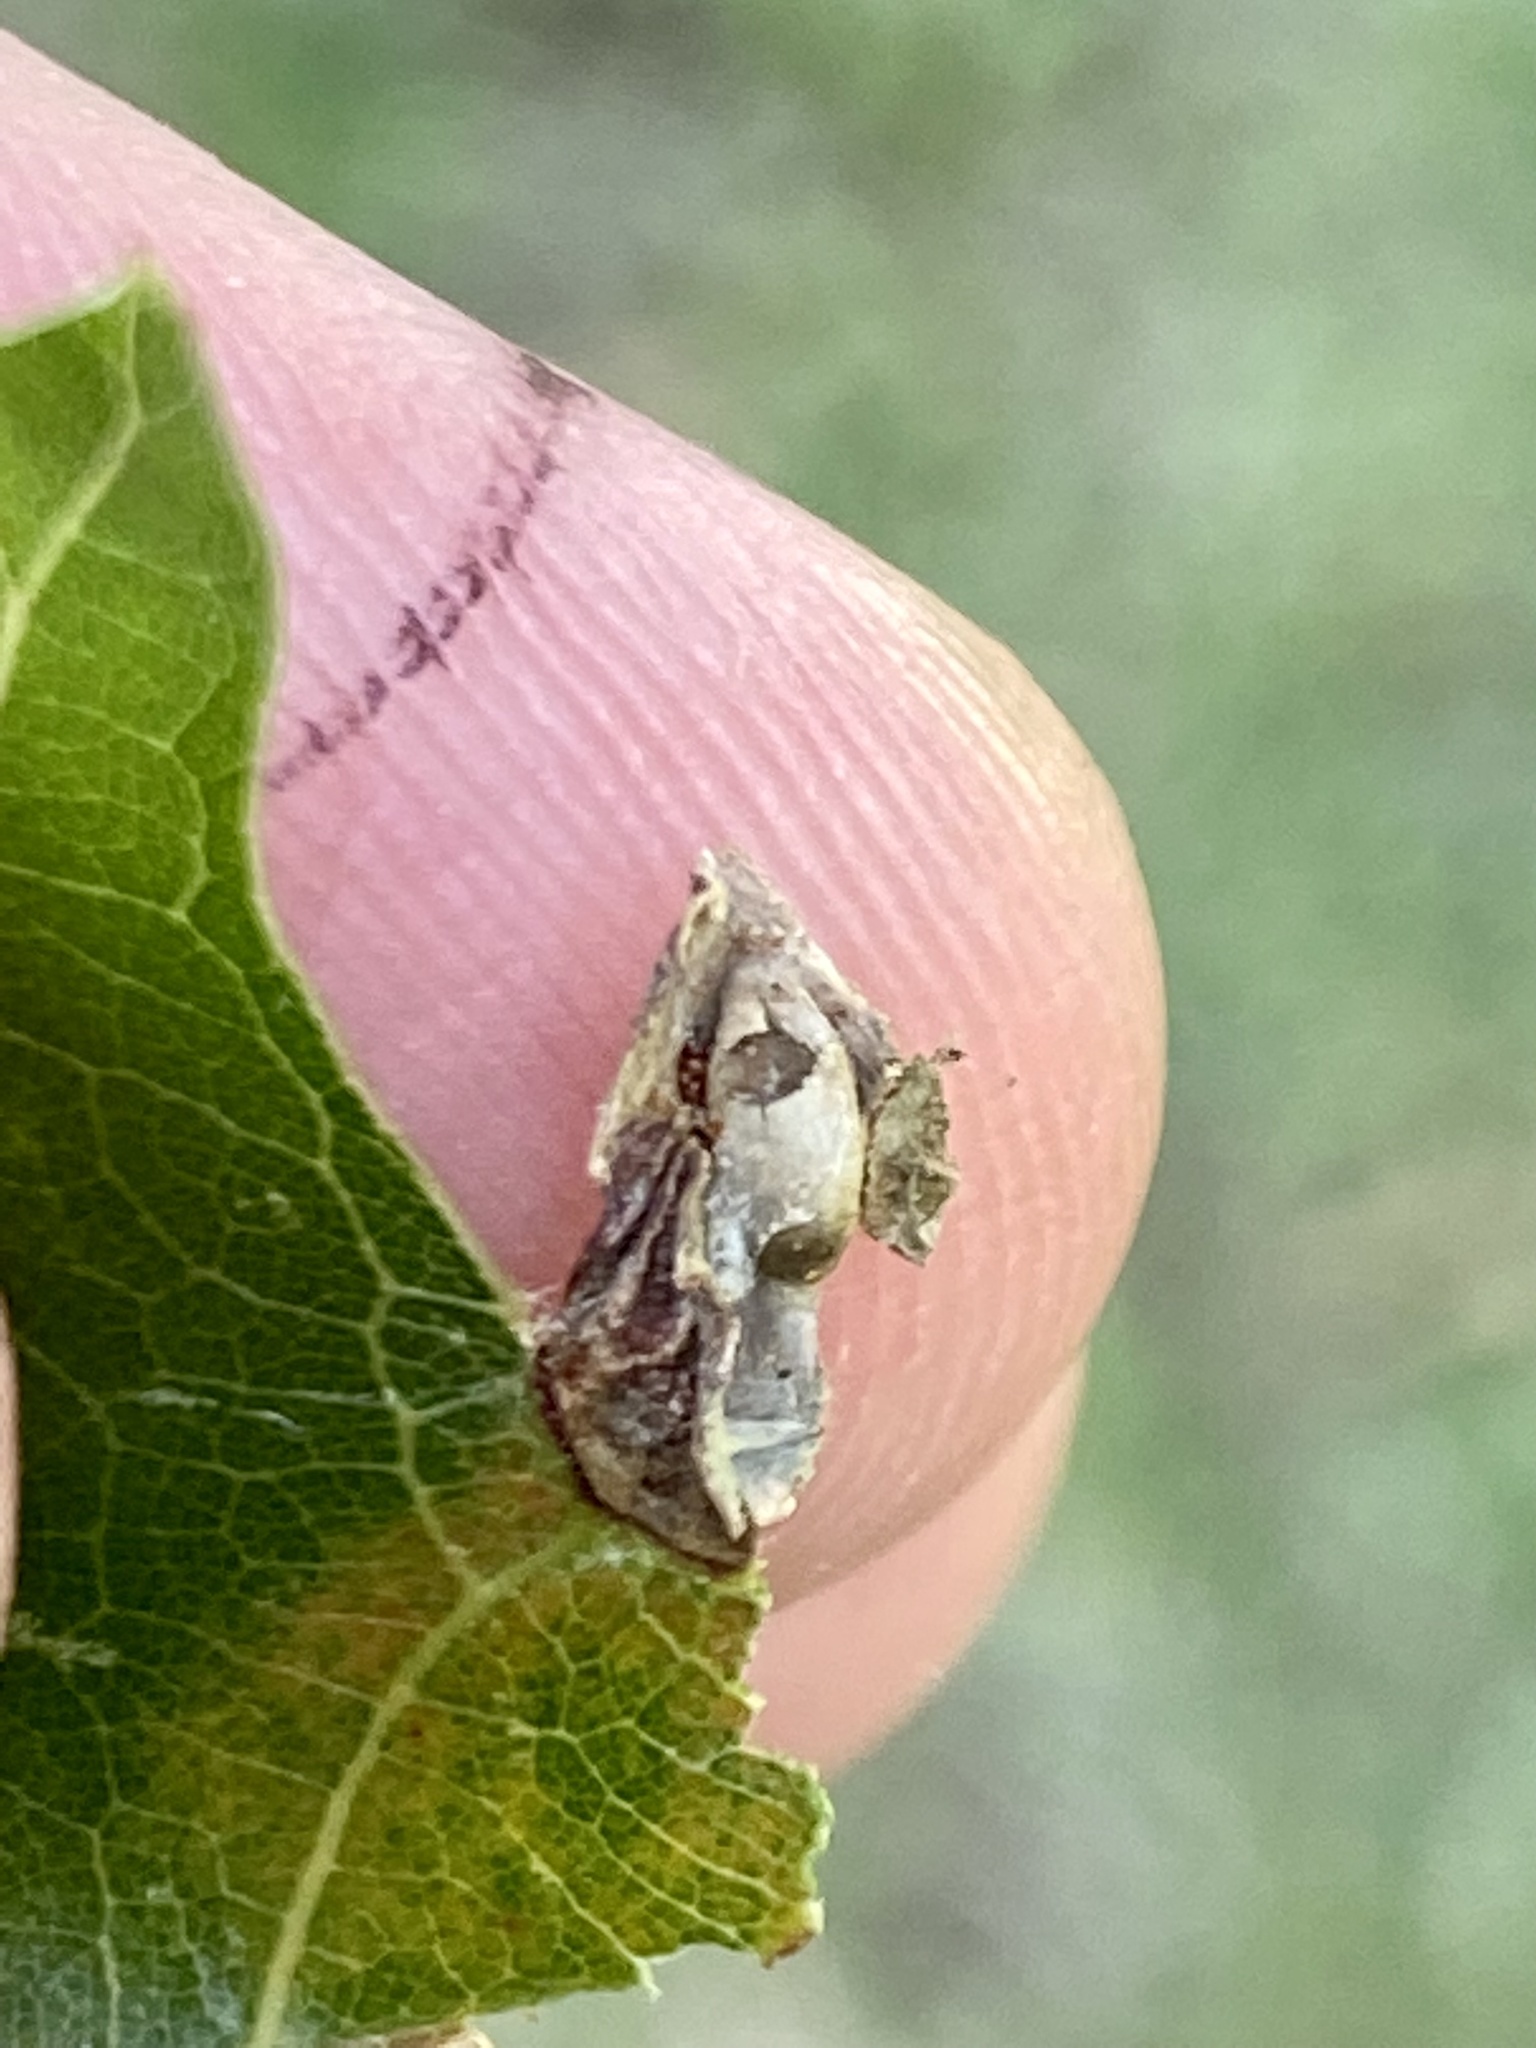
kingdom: Animalia
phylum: Arthropoda
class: Insecta
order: Hymenoptera
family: Cynipidae
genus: Dryocosmus
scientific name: Dryocosmus
